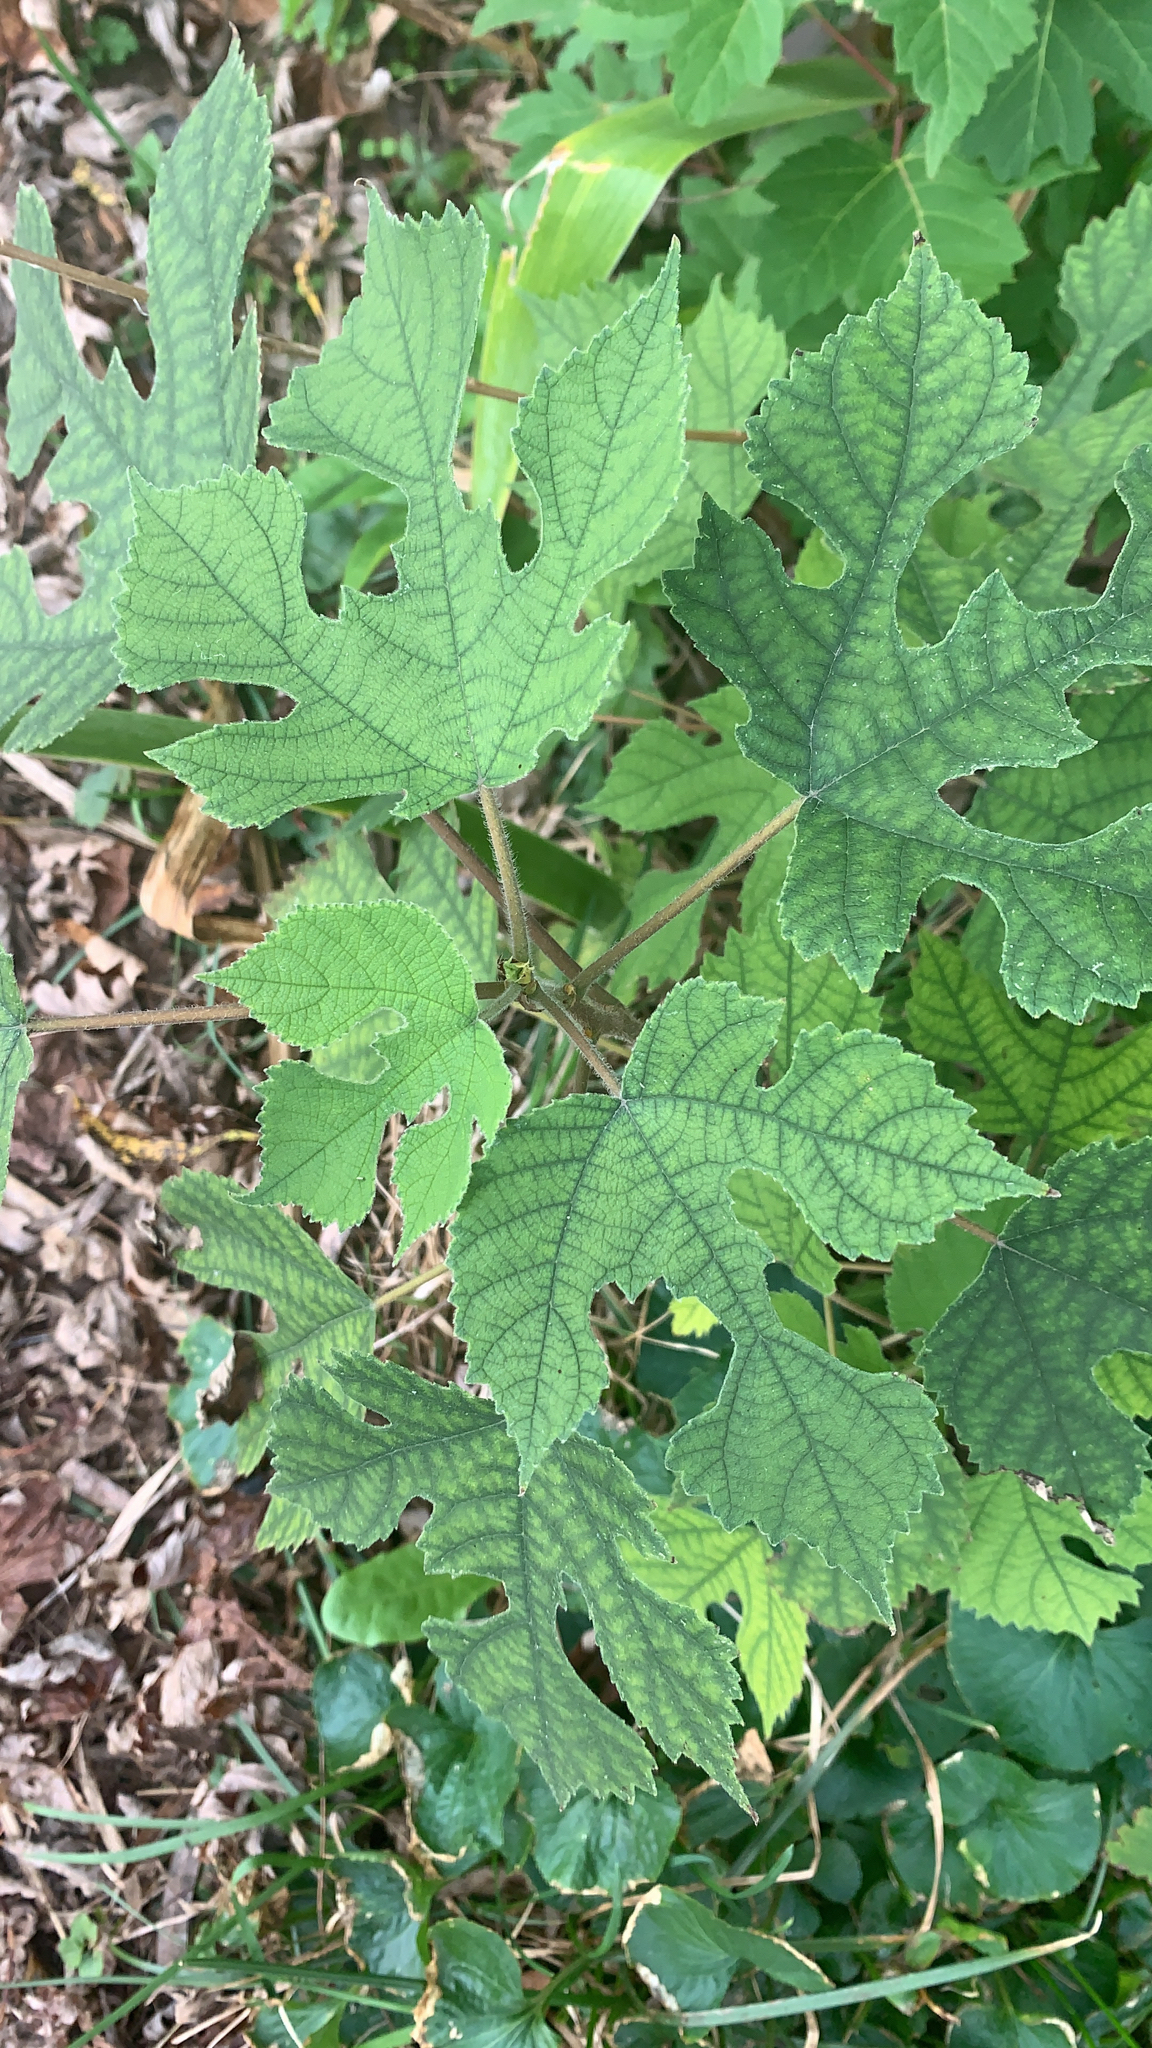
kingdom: Plantae
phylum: Tracheophyta
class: Magnoliopsida
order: Rosales
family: Moraceae
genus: Broussonetia
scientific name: Broussonetia papyrifera
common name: Paper mulberry
